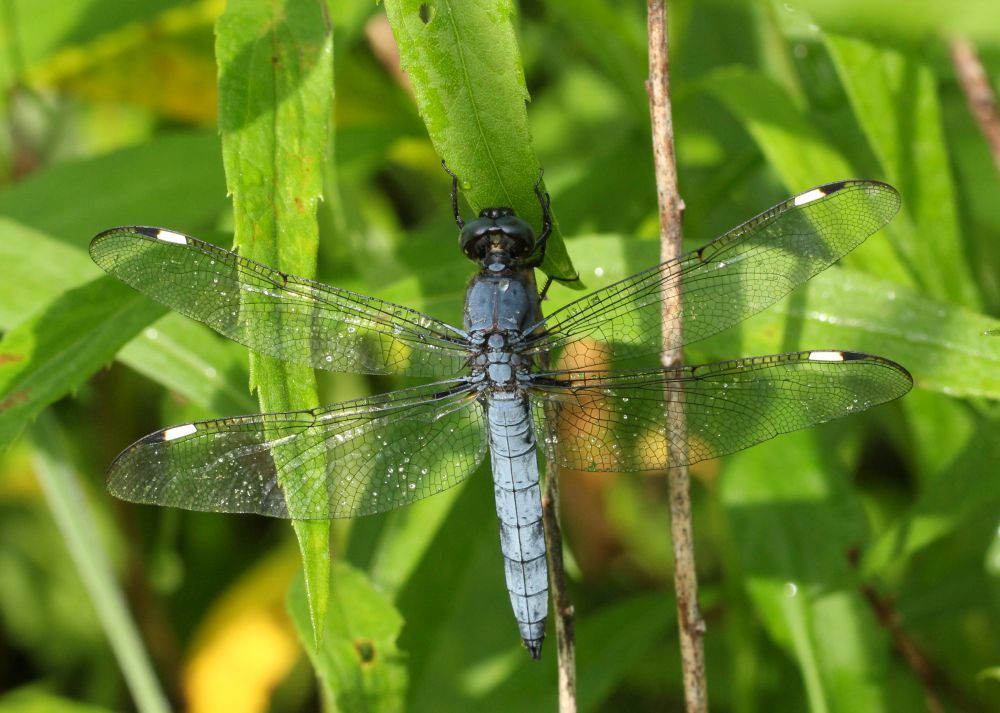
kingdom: Animalia
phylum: Arthropoda
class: Insecta
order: Odonata
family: Libellulidae
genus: Libellula
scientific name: Libellula cyanea
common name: Spangled skimmer
